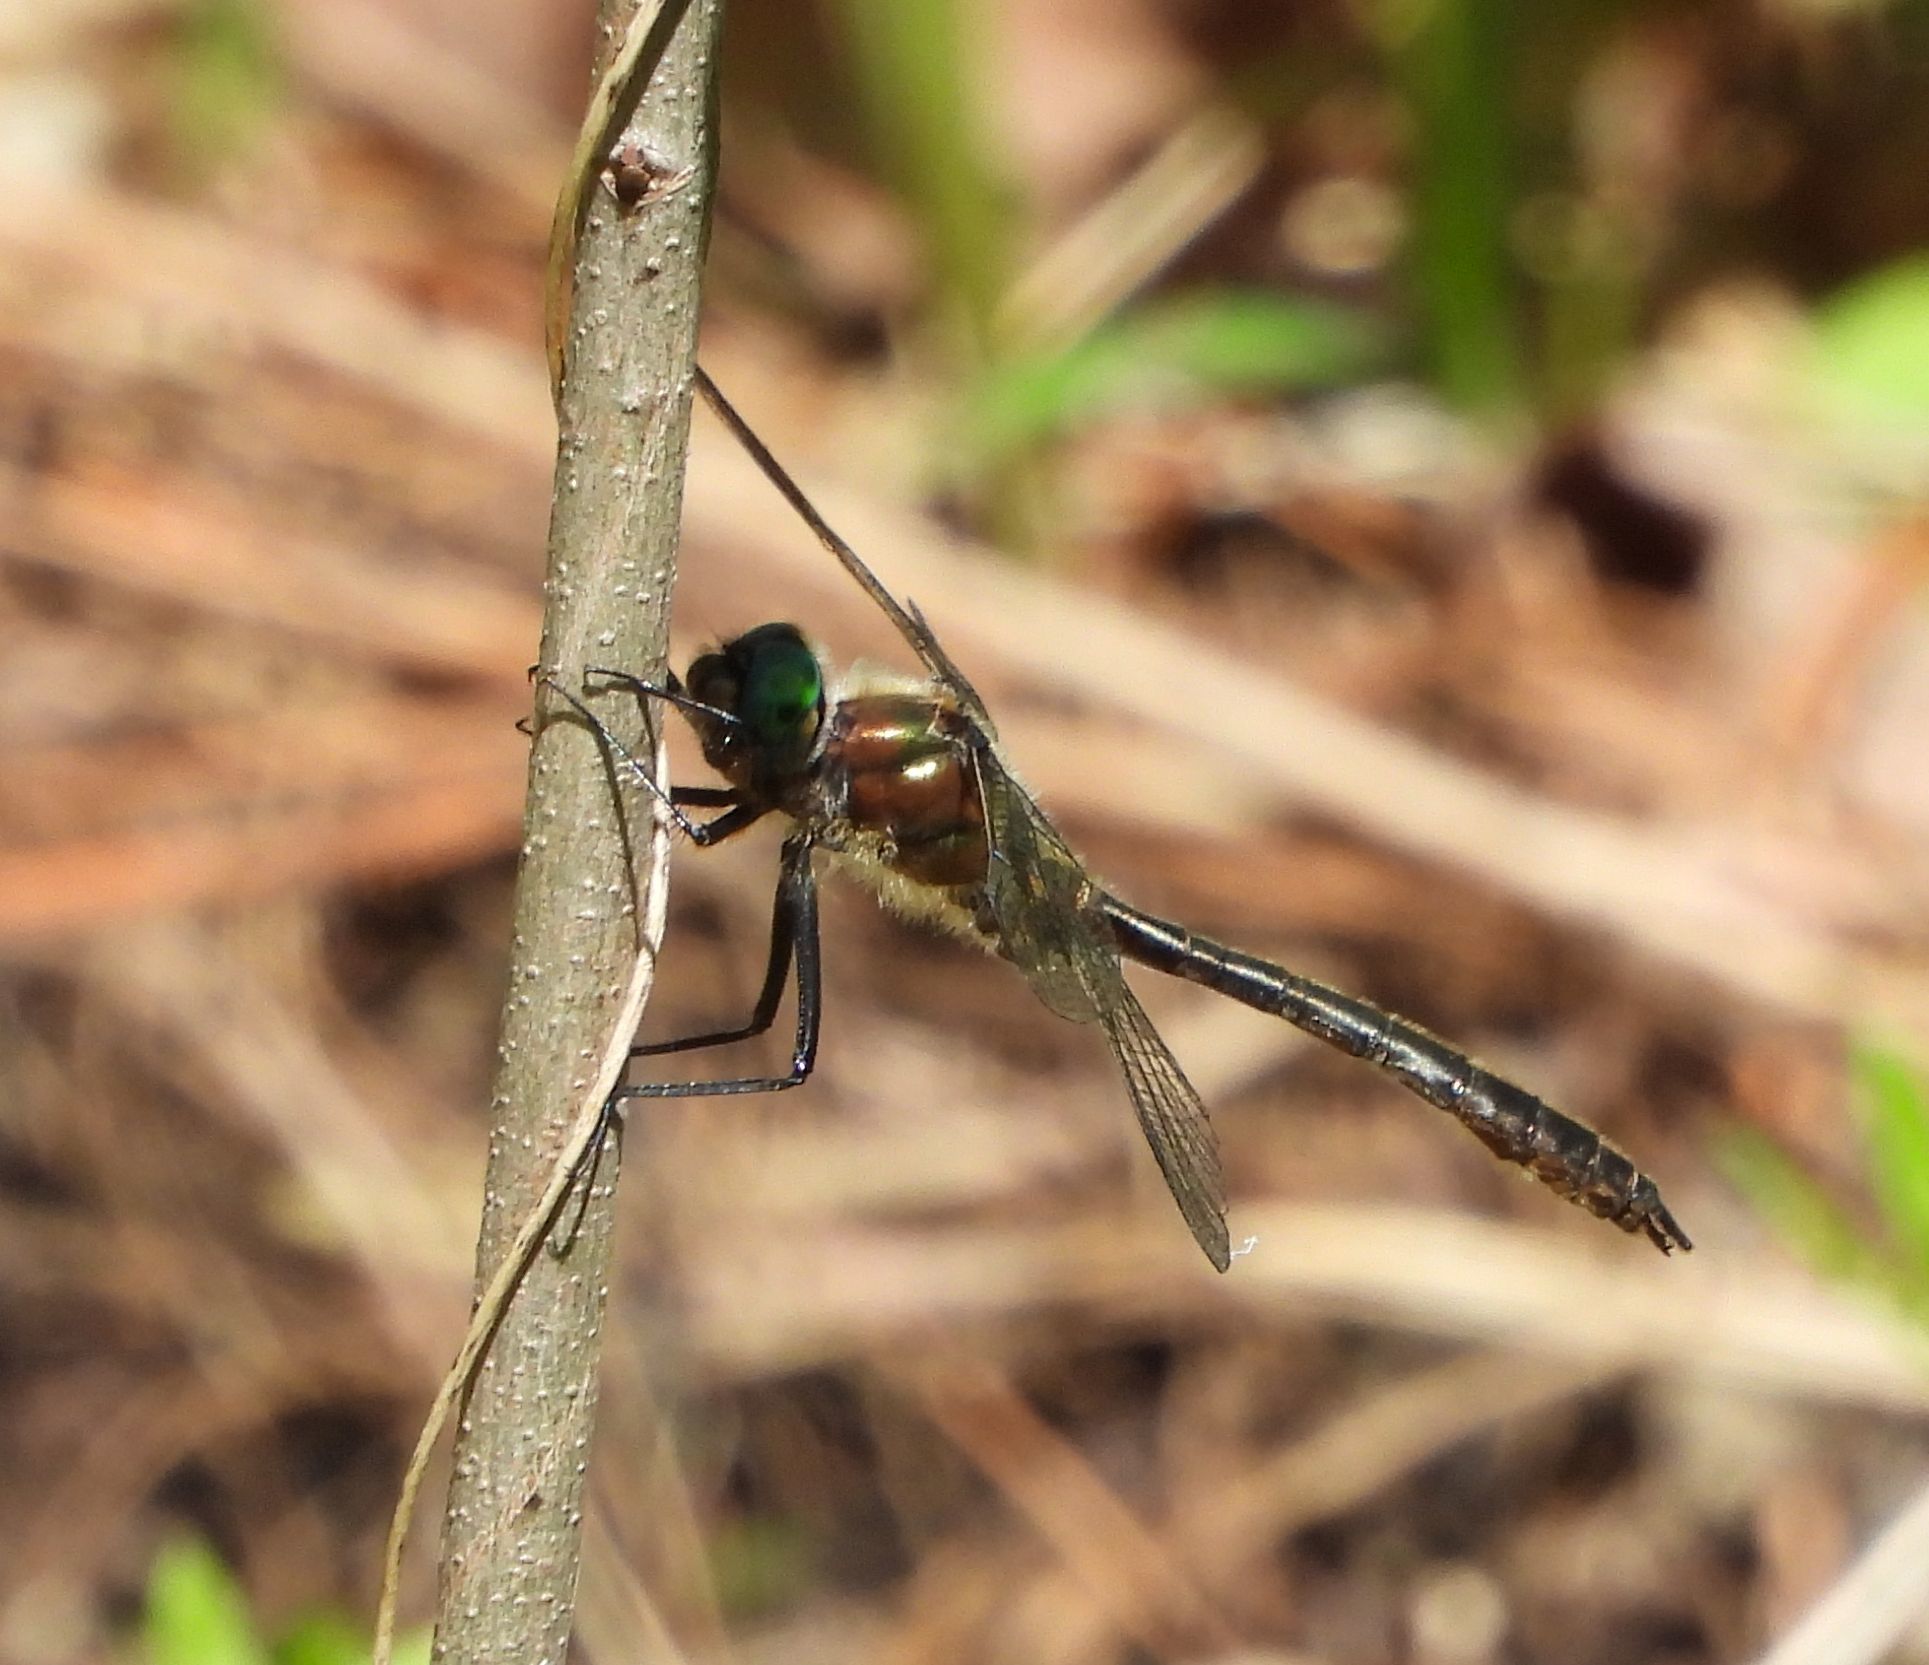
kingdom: Animalia
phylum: Arthropoda
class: Insecta
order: Odonata
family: Corduliidae
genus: Cordulia
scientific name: Cordulia shurtleffii
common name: American emerald
